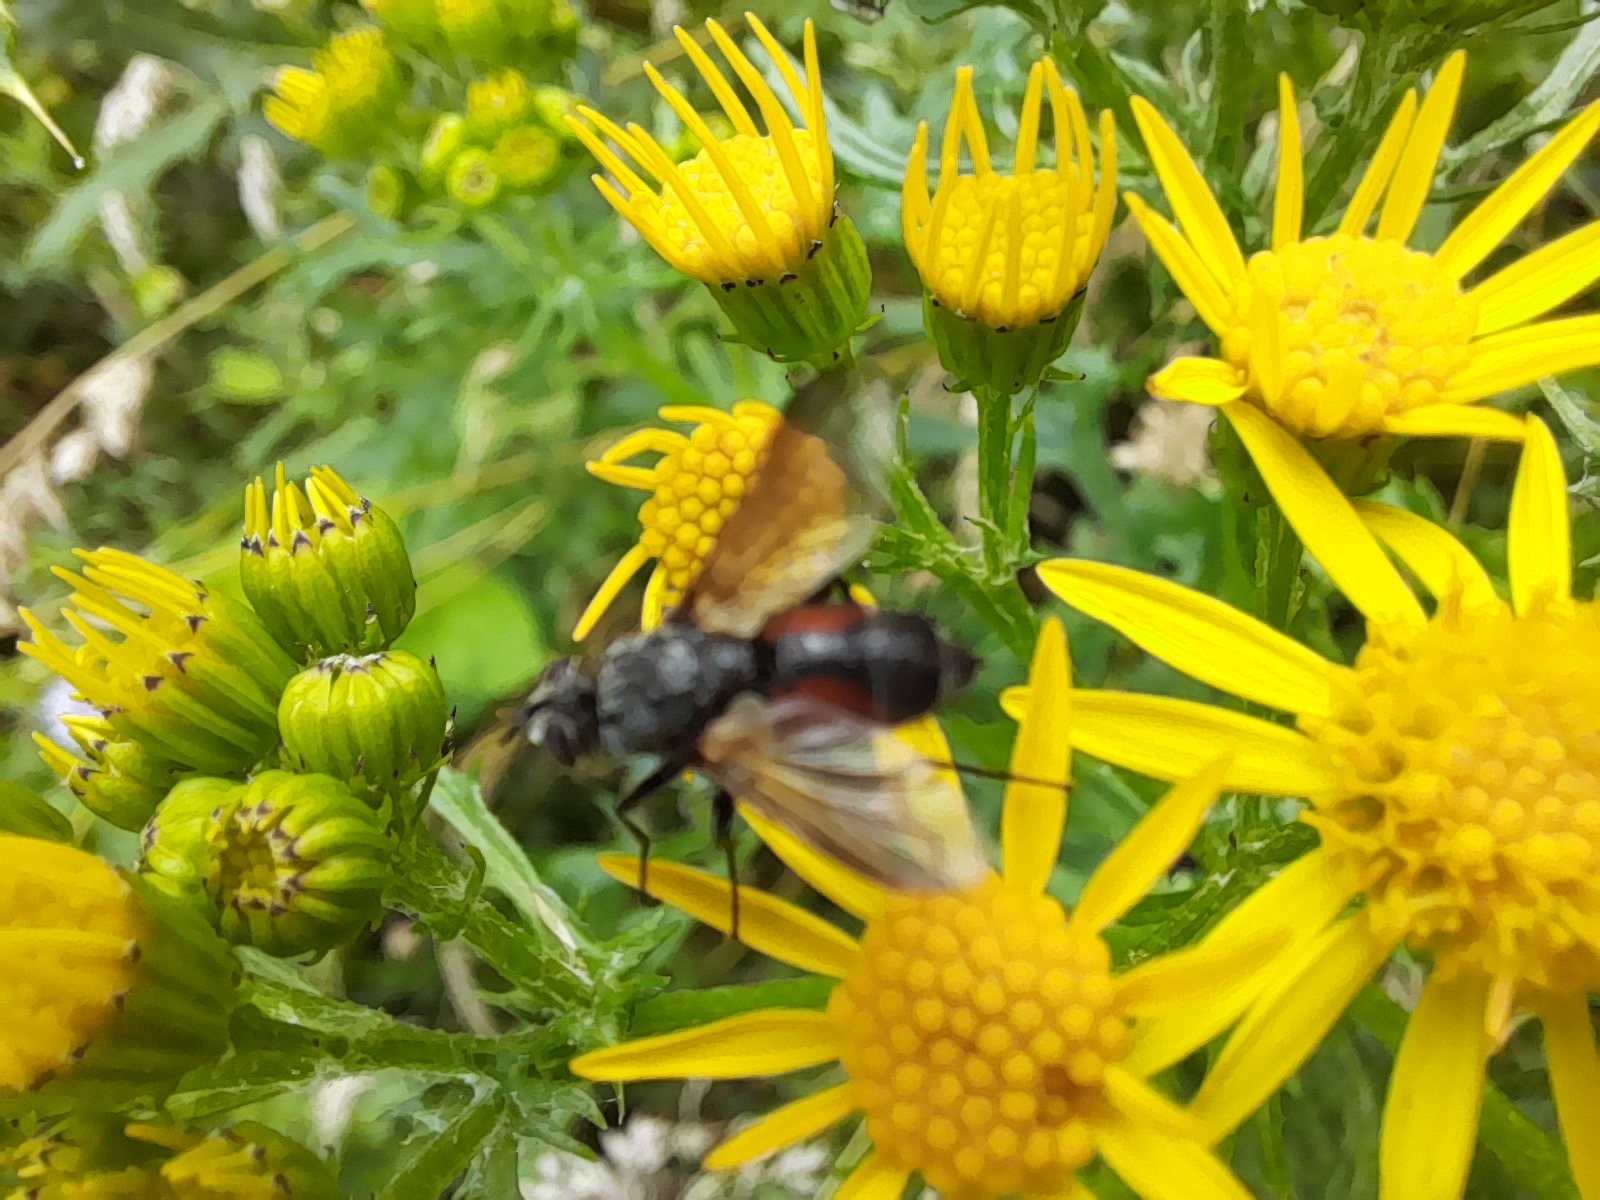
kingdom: Animalia
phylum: Arthropoda
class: Insecta
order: Diptera
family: Tachinidae
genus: Eriothrix
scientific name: Eriothrix rufomaculatus
